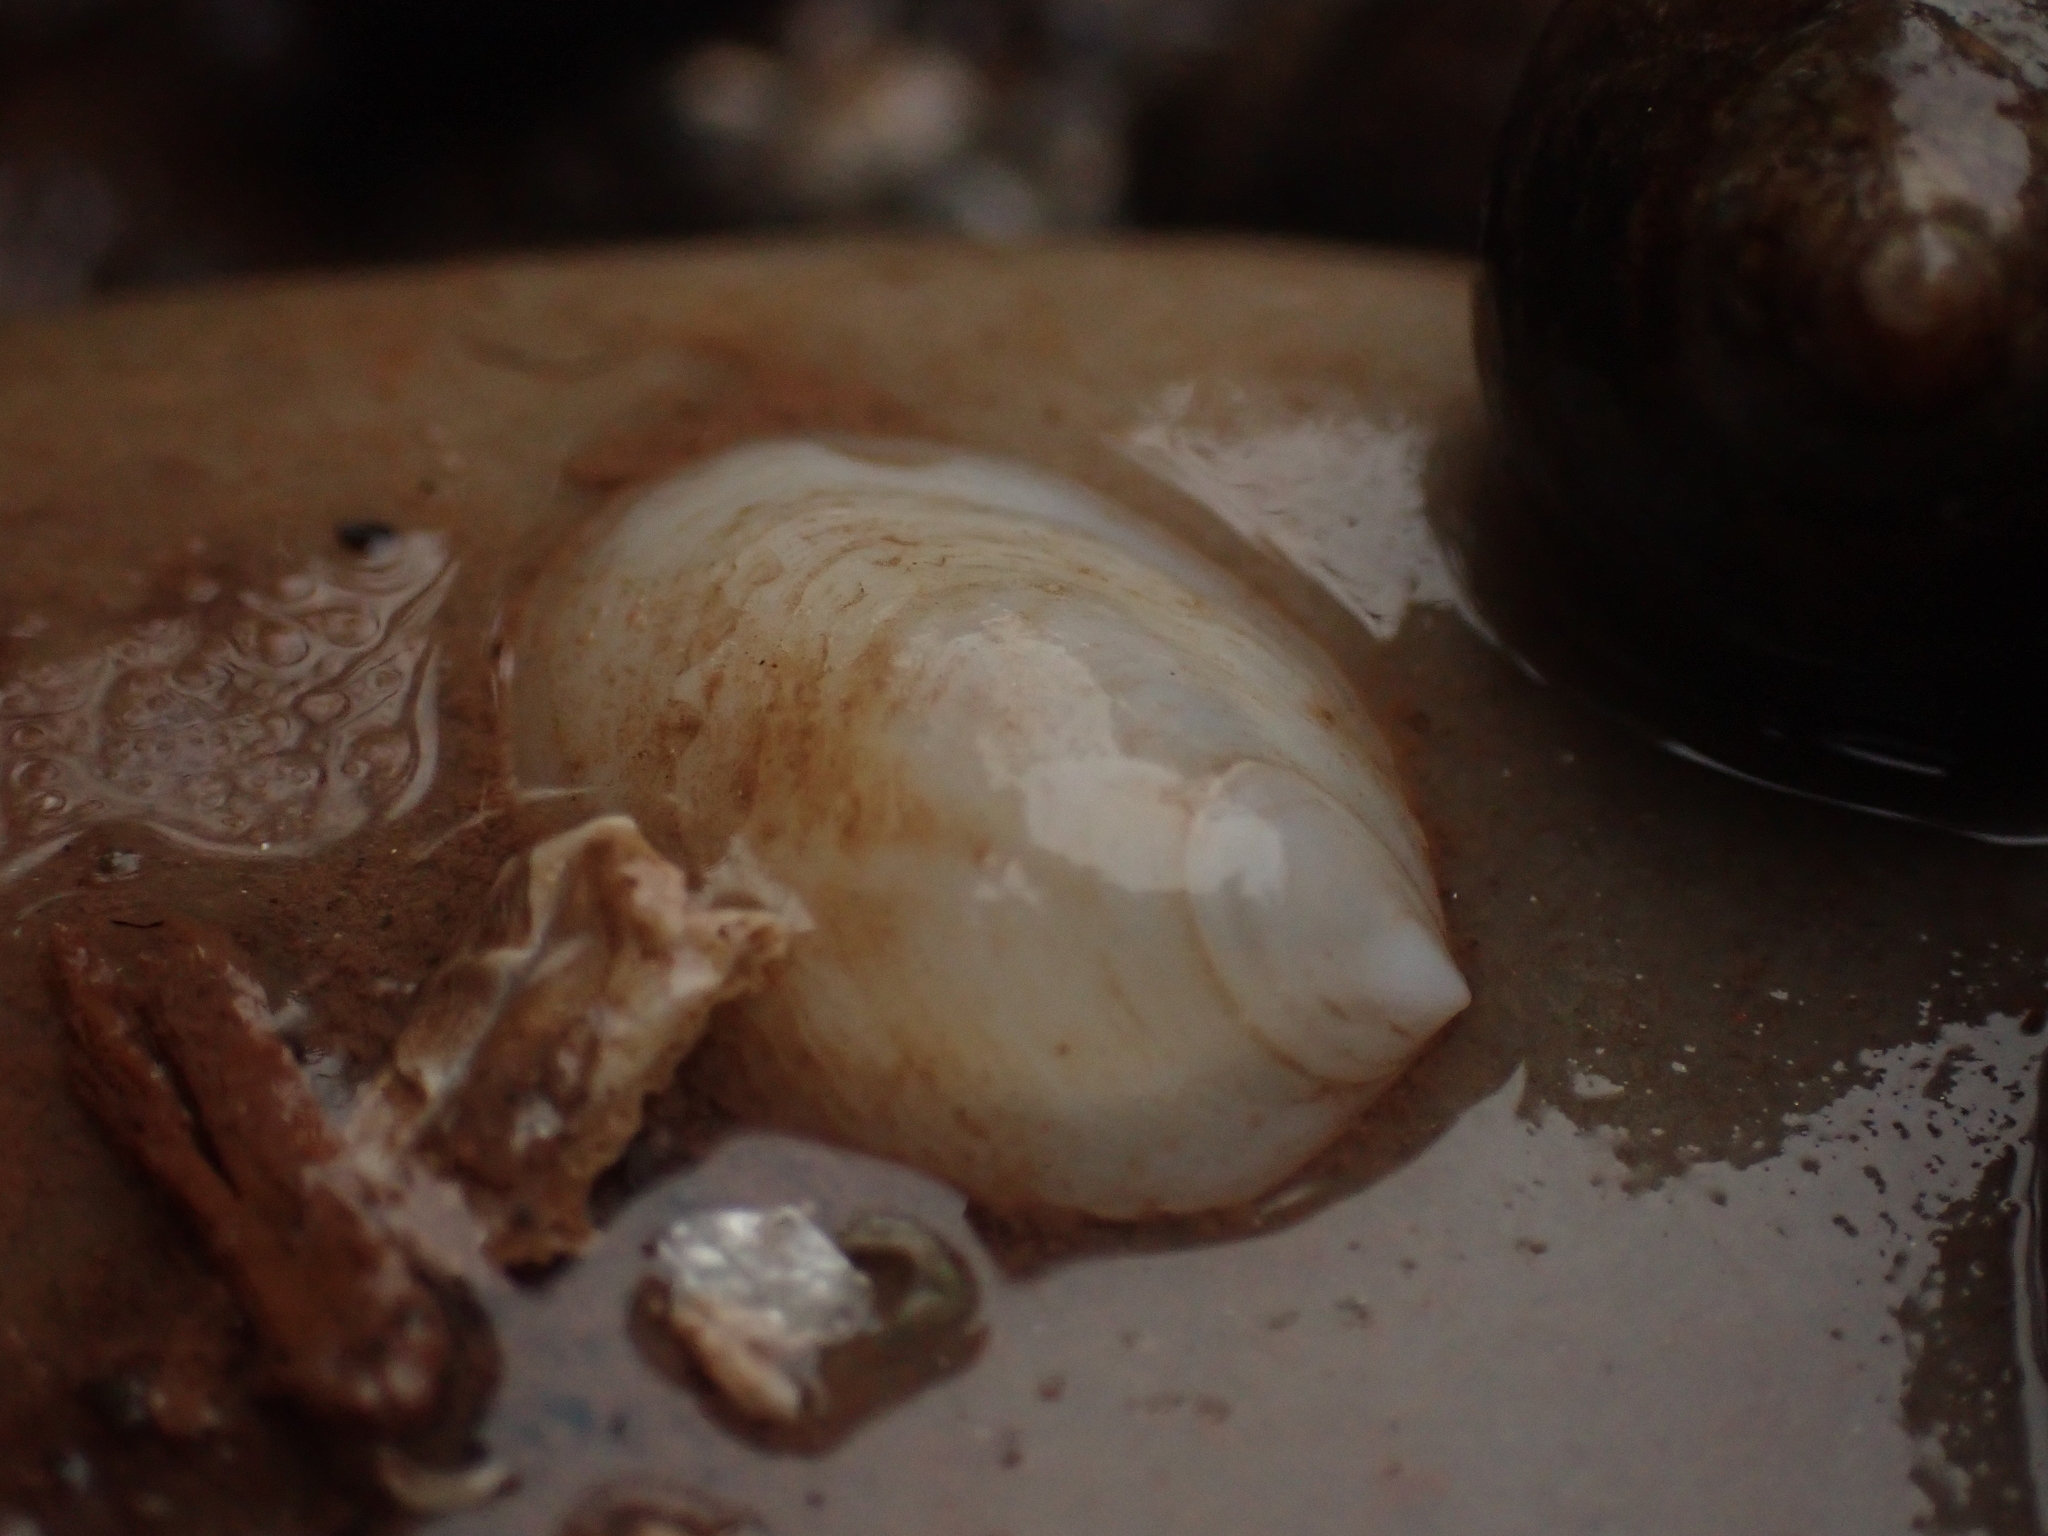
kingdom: Animalia
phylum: Mollusca
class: Gastropoda
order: Littorinimorpha
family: Calyptraeidae
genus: Crepidula
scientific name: Crepidula plana
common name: Eastern white slippersnail
